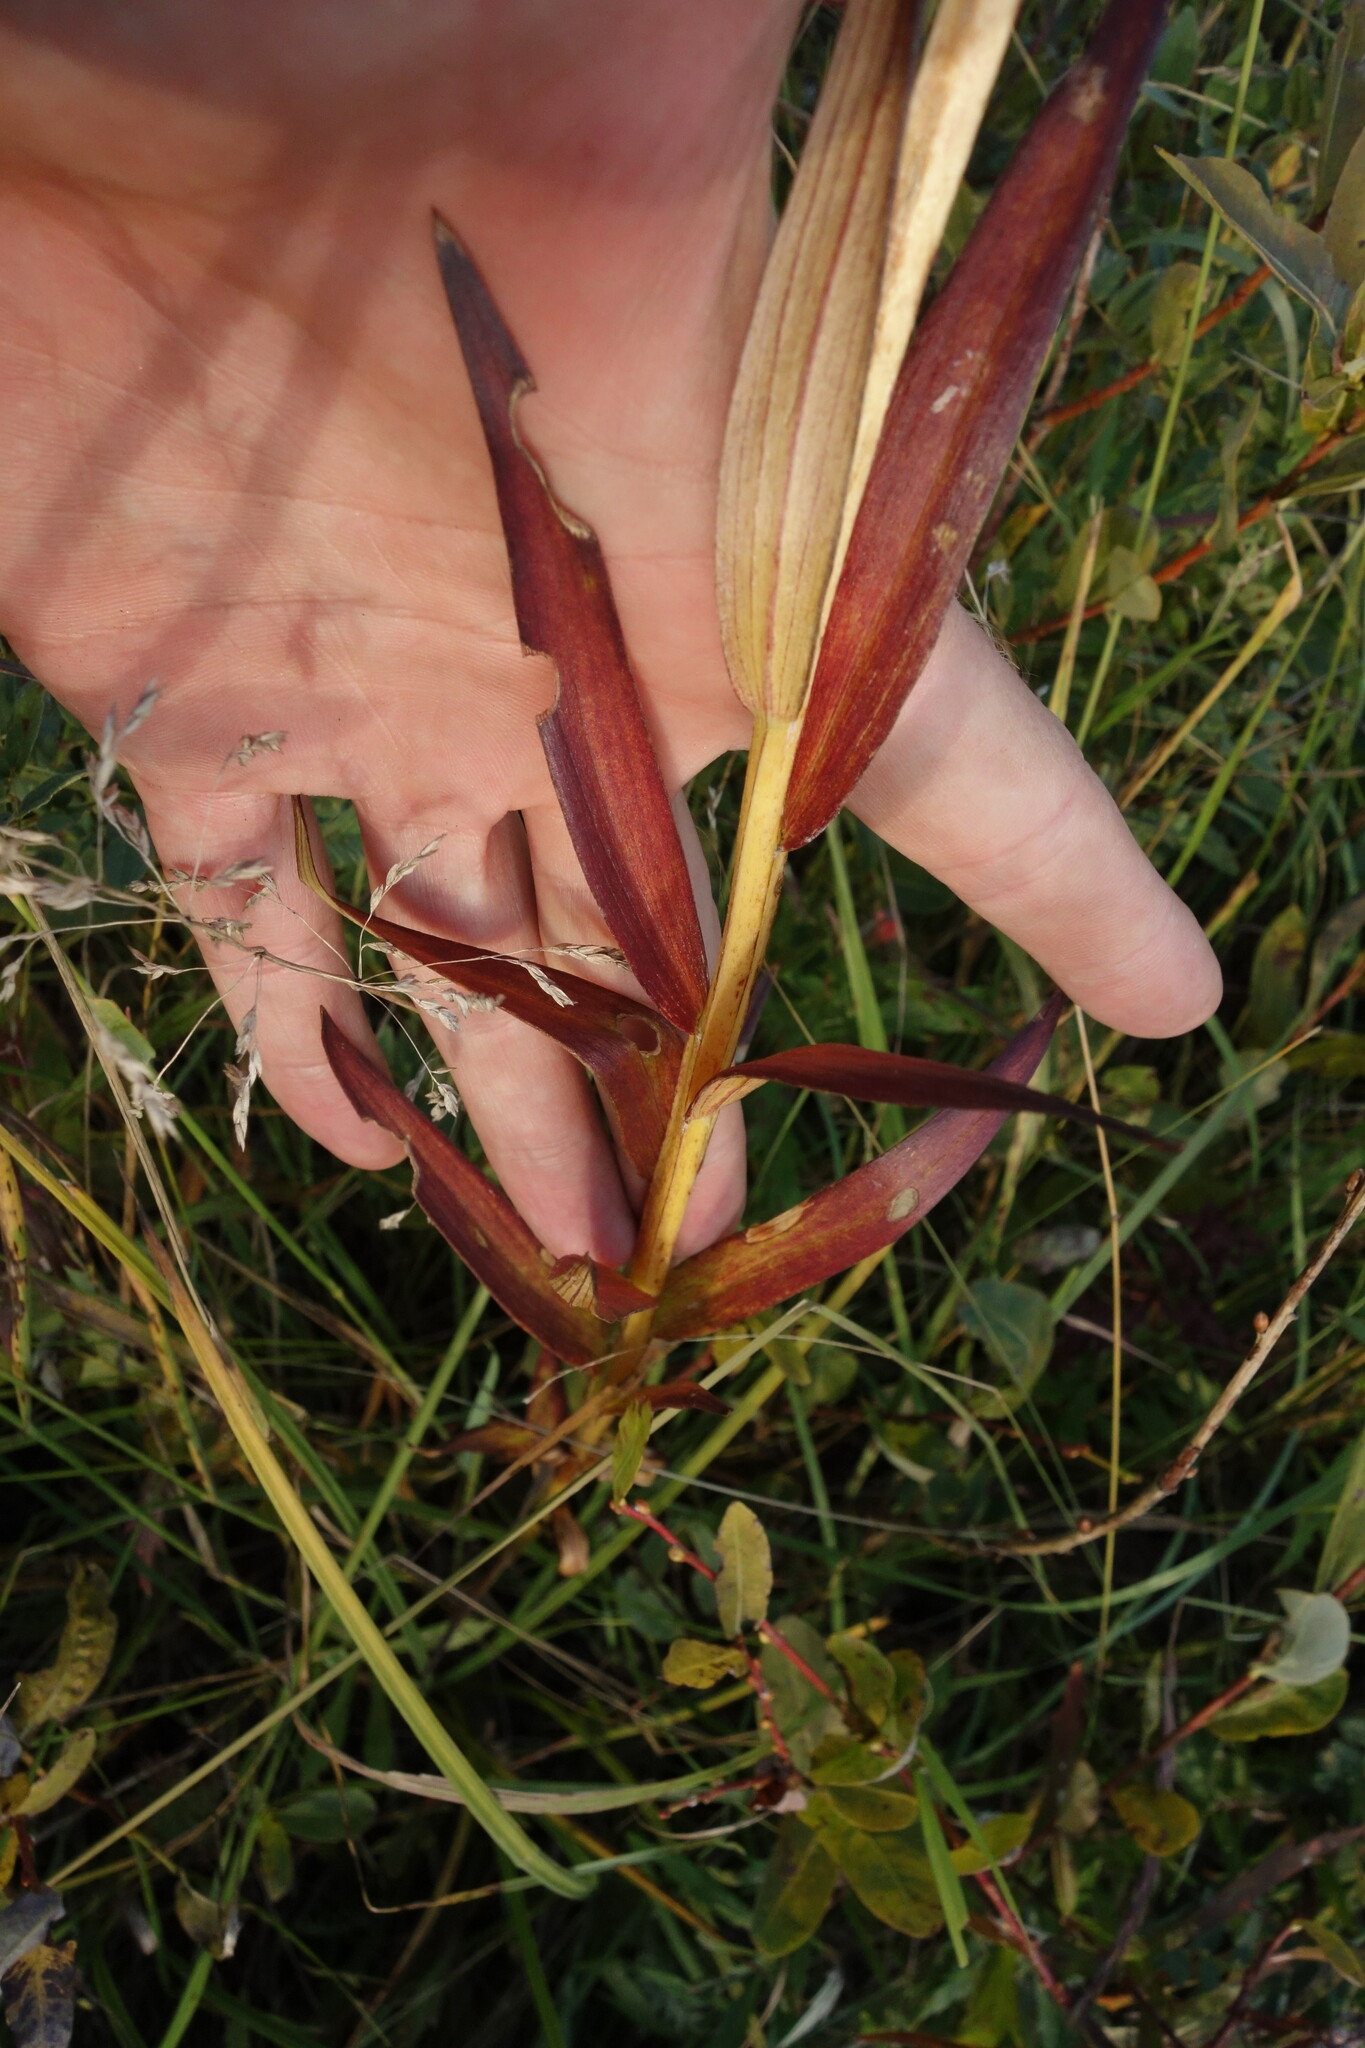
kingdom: Plantae
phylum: Tracheophyta
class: Liliopsida
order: Liliales
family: Liliaceae
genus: Lilium
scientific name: Lilium pensylvanicum
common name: Candlestick lily
